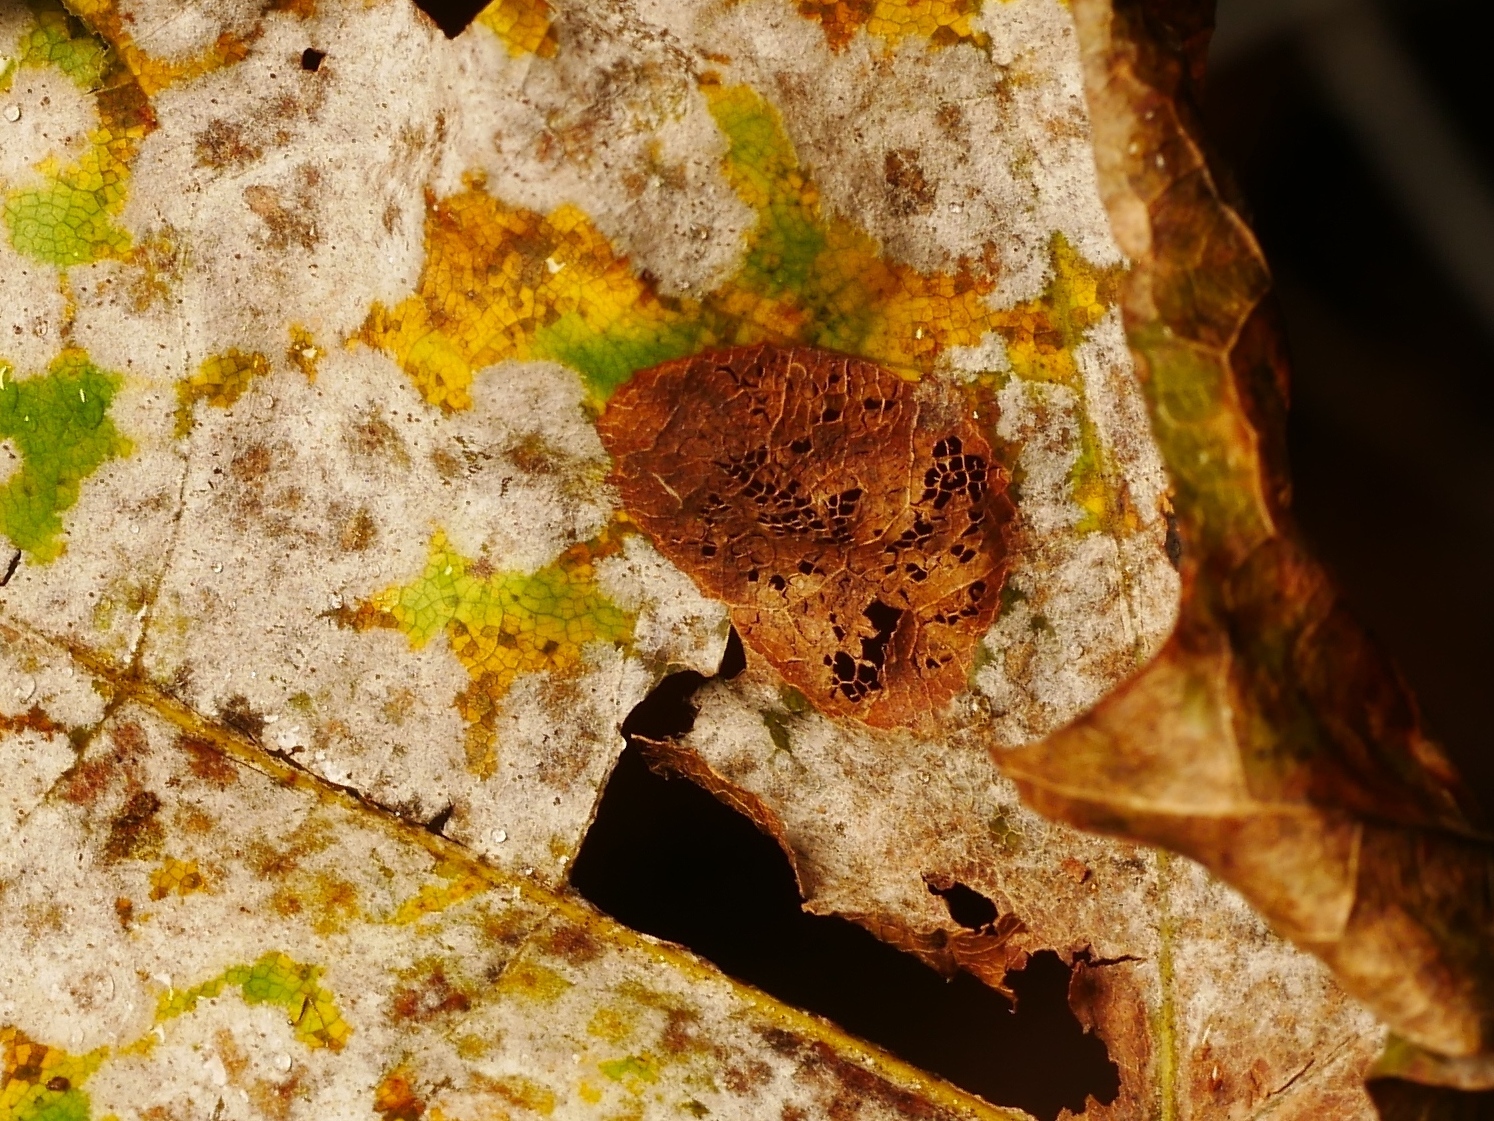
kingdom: Fungi
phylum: Ascomycota
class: Leotiomycetes
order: Helotiales
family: Erysiphaceae
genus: Sawadaea
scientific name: Sawadaea tulasnei
